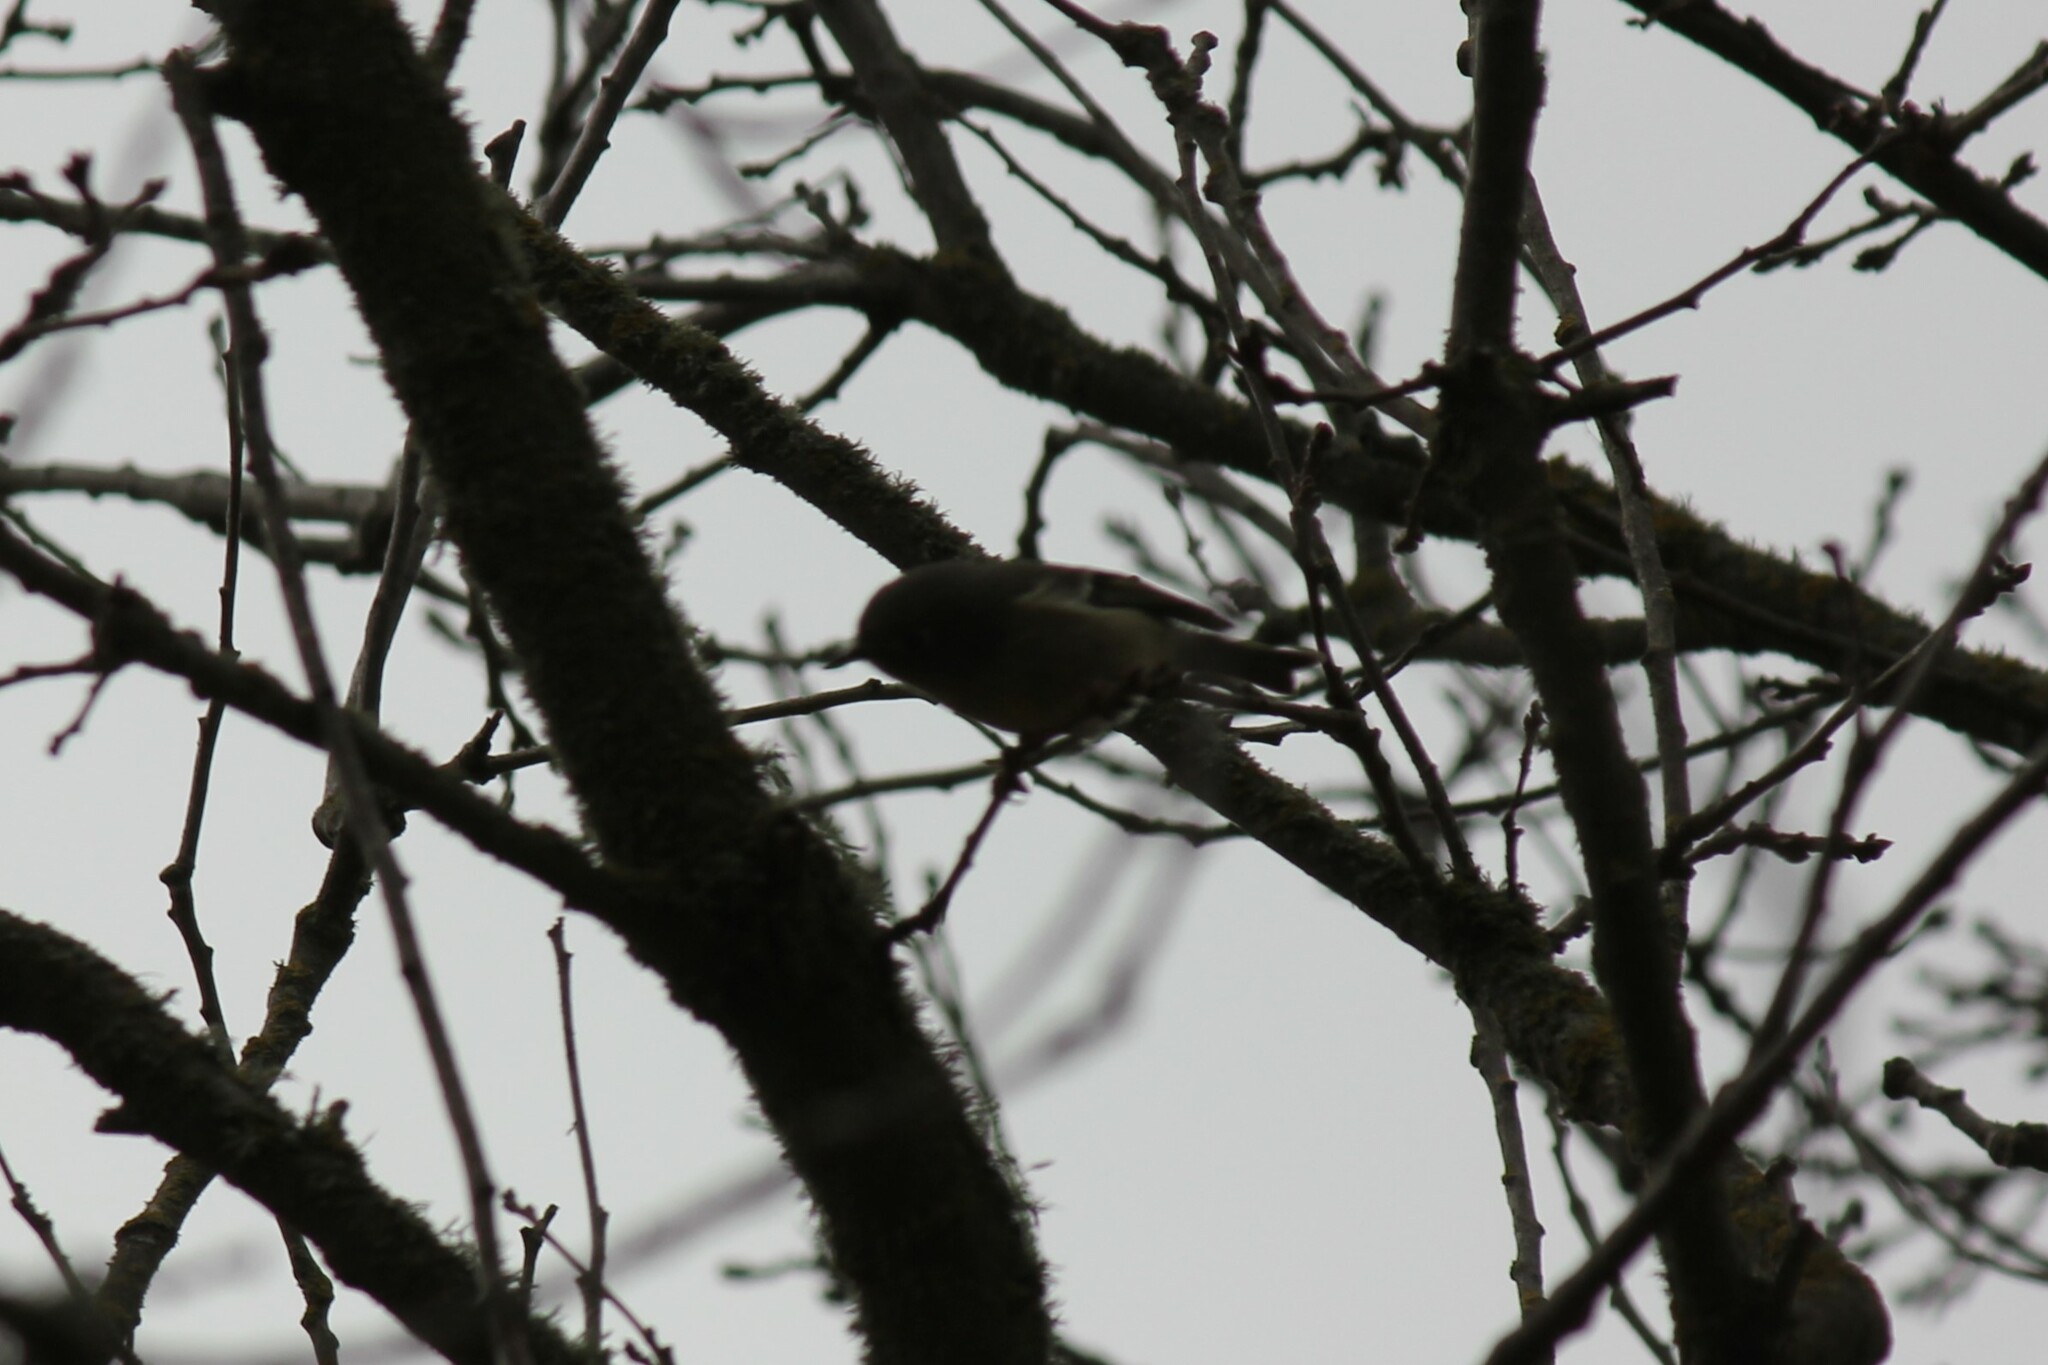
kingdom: Animalia
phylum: Chordata
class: Aves
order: Passeriformes
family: Regulidae
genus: Regulus
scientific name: Regulus calendula
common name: Ruby-crowned kinglet
